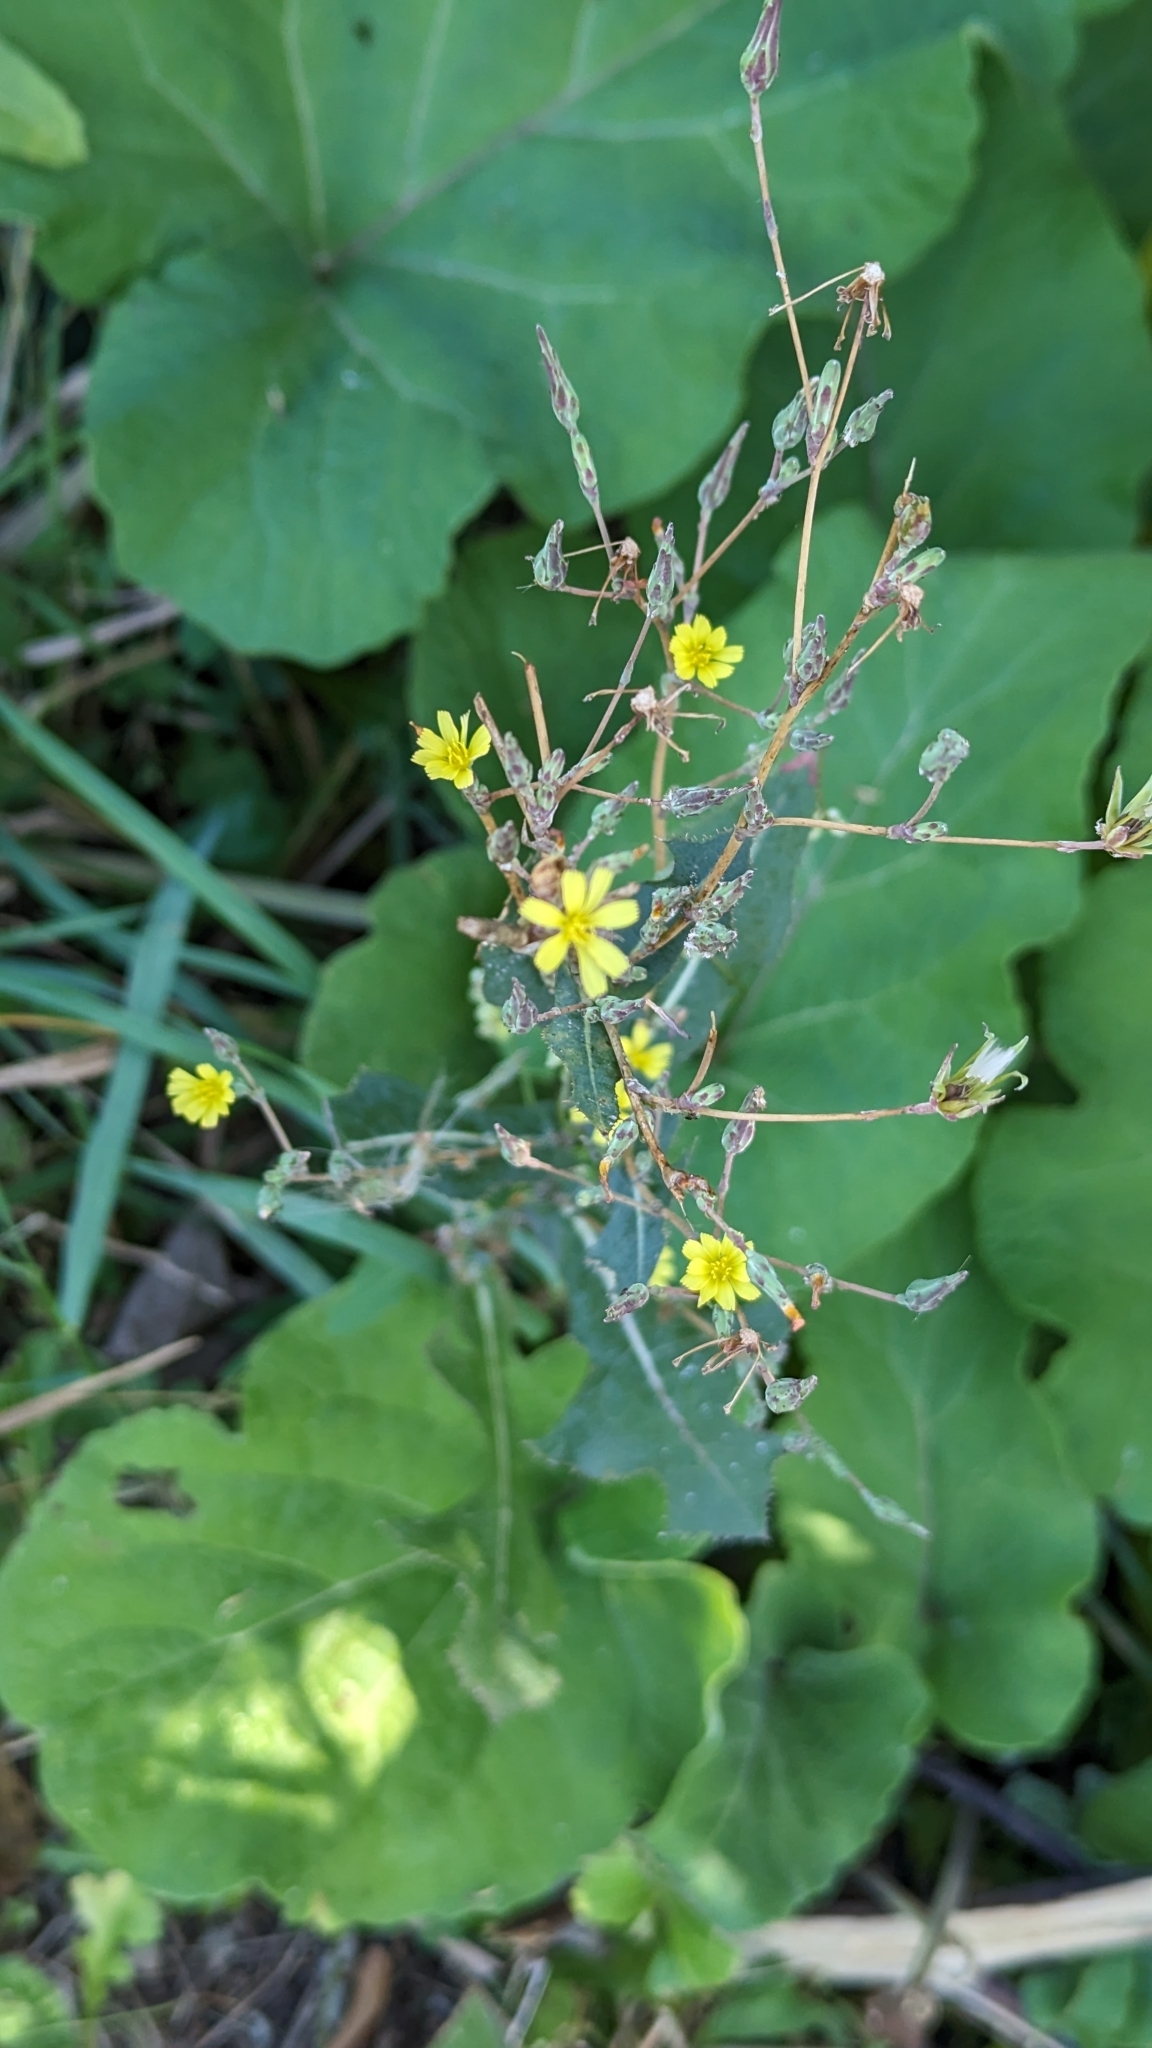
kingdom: Plantae
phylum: Tracheophyta
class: Magnoliopsida
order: Asterales
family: Asteraceae
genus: Lactuca
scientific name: Lactuca serriola
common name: Prickly lettuce
